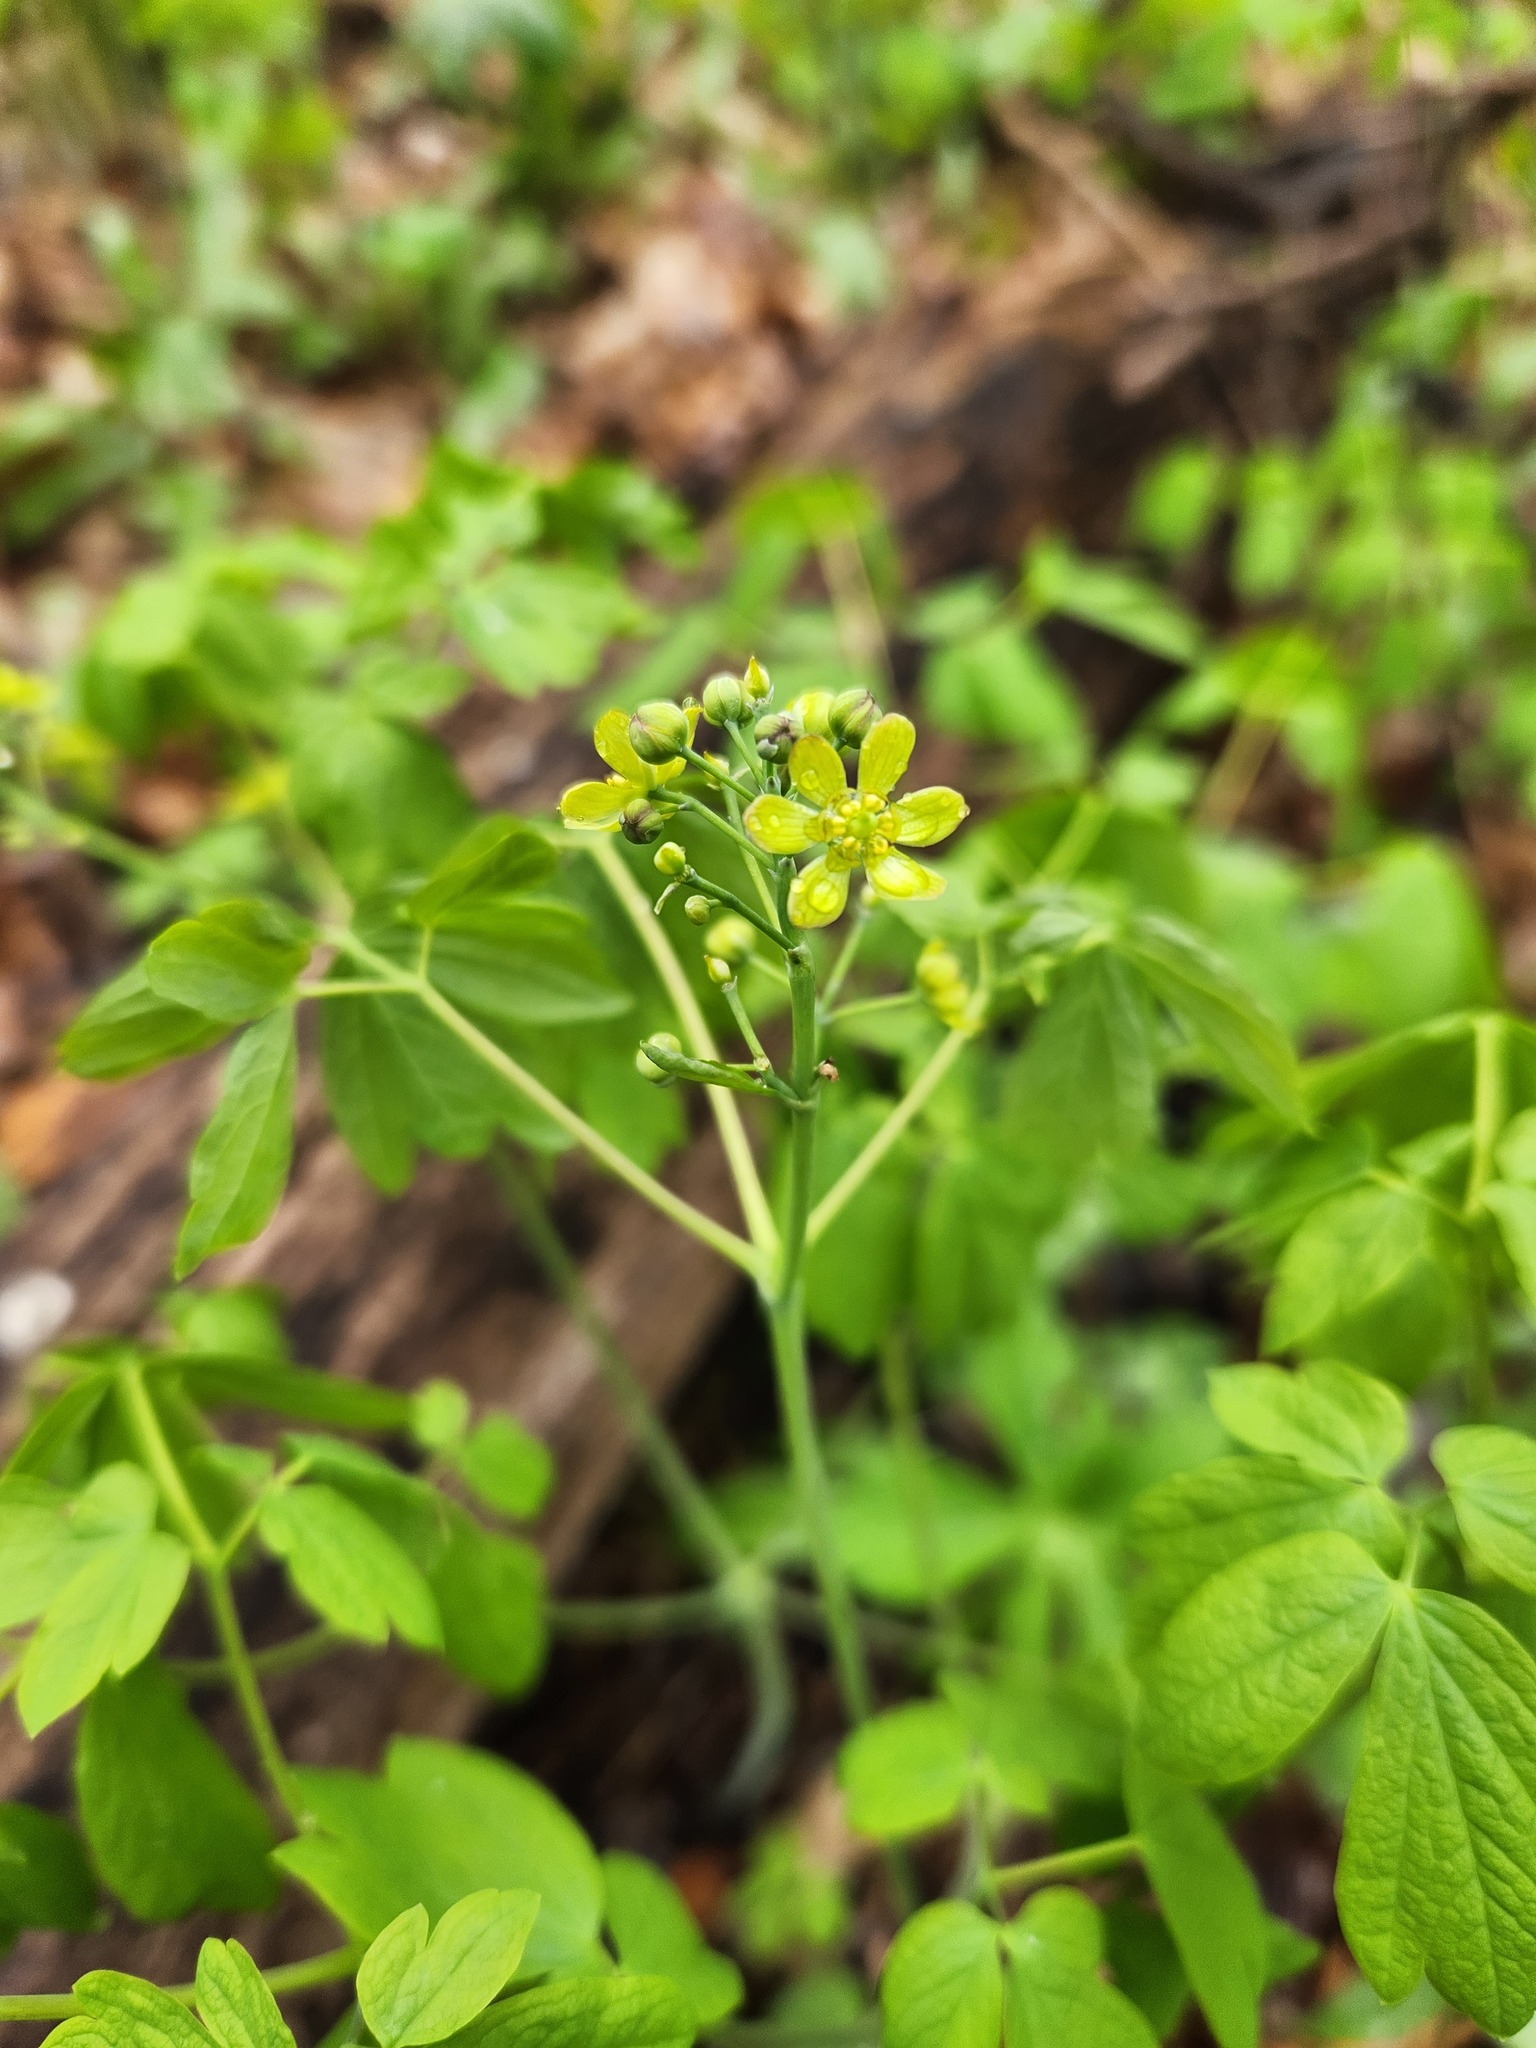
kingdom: Plantae
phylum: Tracheophyta
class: Magnoliopsida
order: Ranunculales
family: Berberidaceae
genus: Caulophyllum
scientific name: Caulophyllum thalictroides
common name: Blue cohosh
